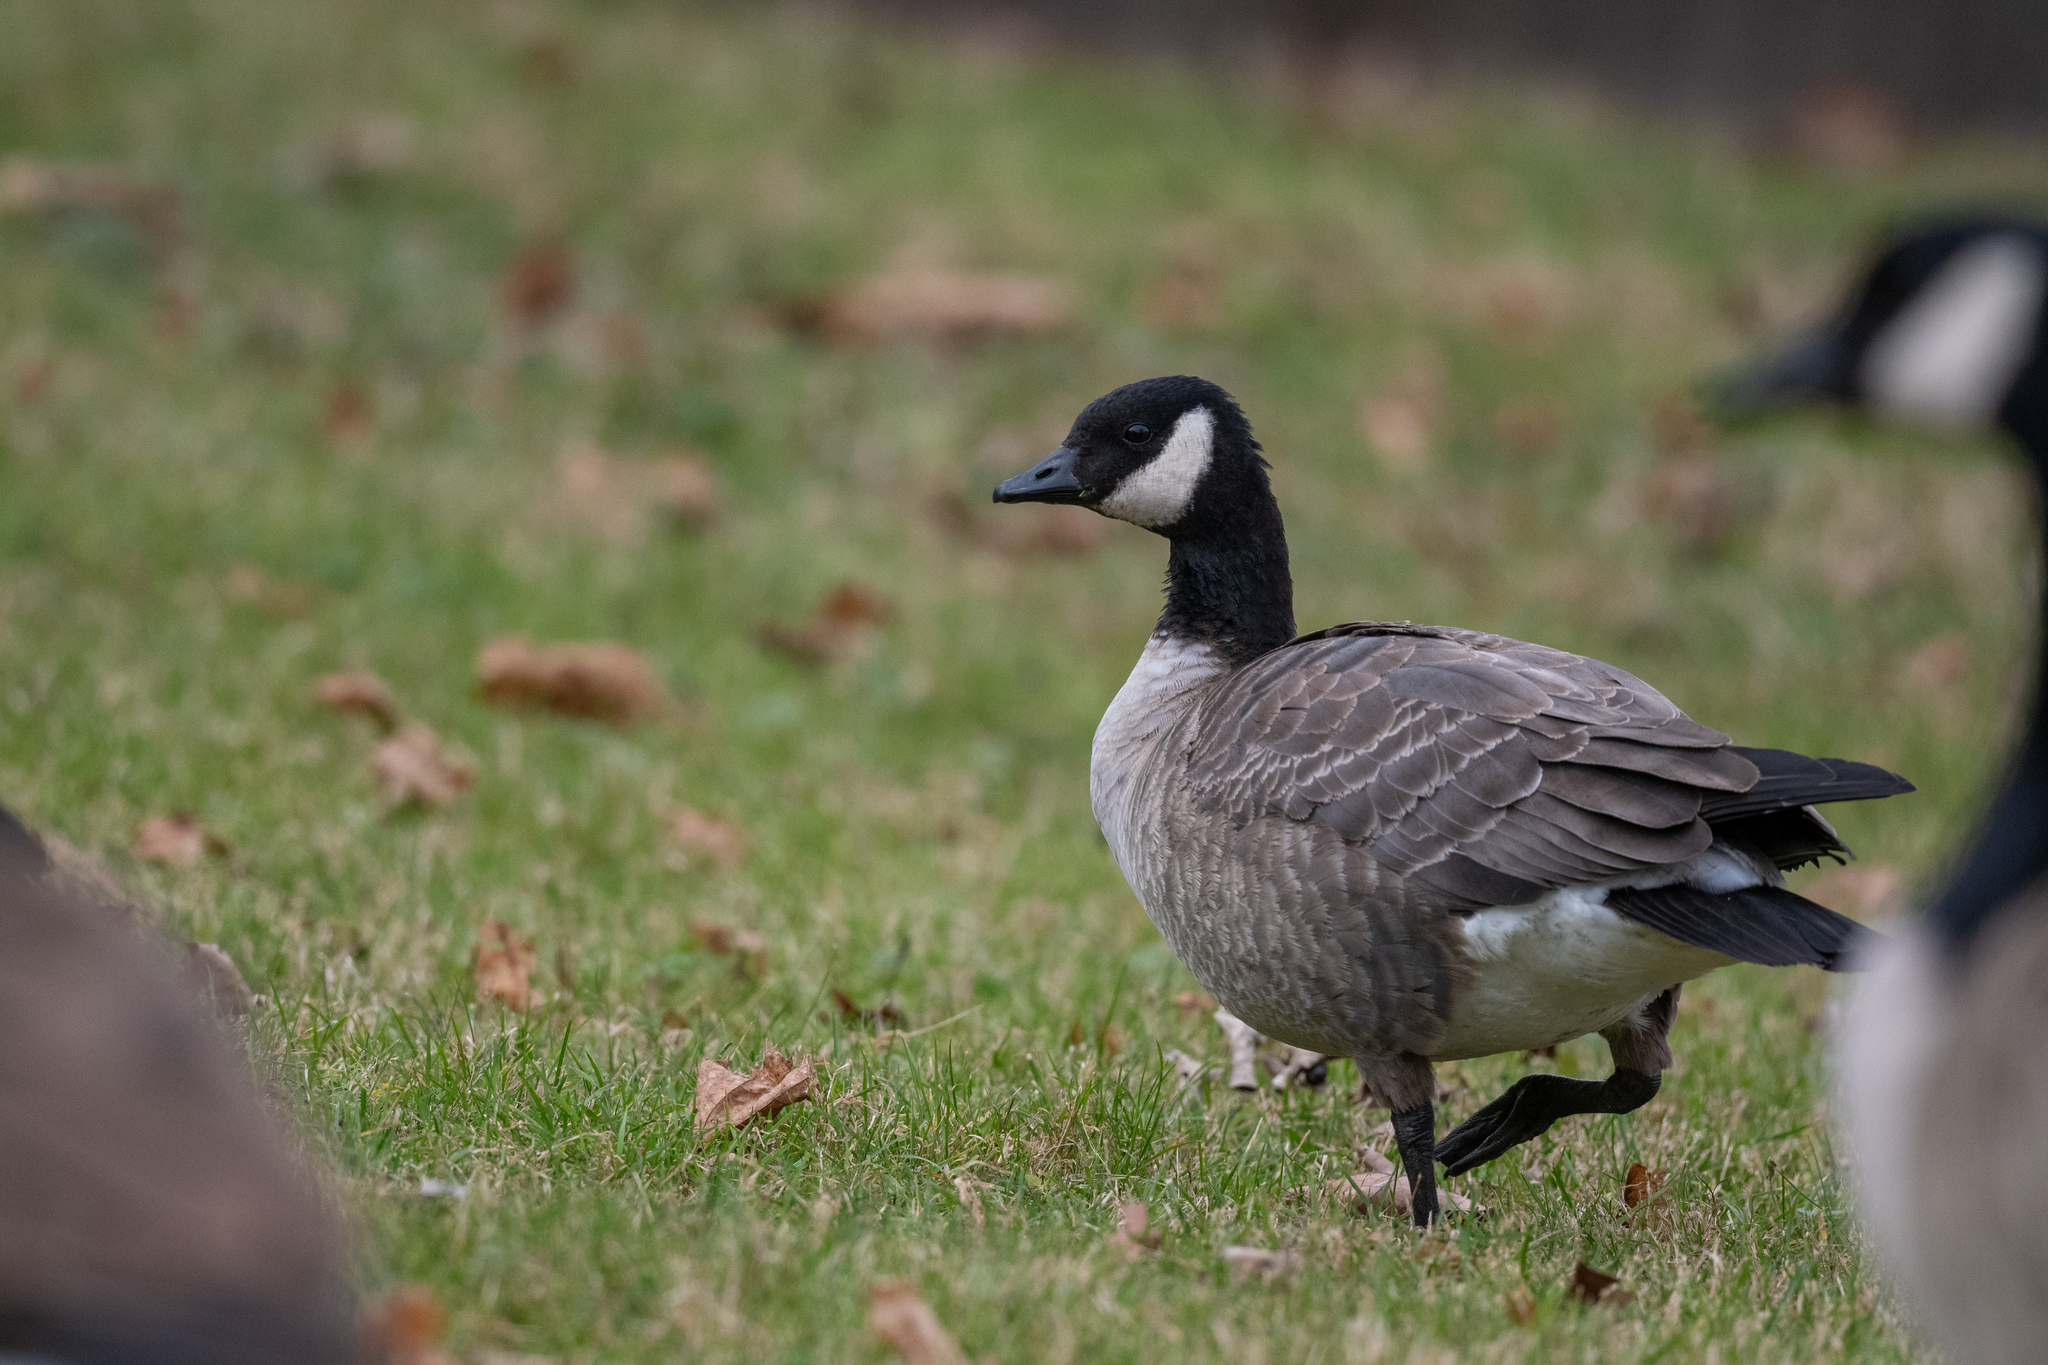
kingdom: Animalia
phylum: Chordata
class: Aves
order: Anseriformes
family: Anatidae
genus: Branta
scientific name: Branta hutchinsii
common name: Cackling goose
